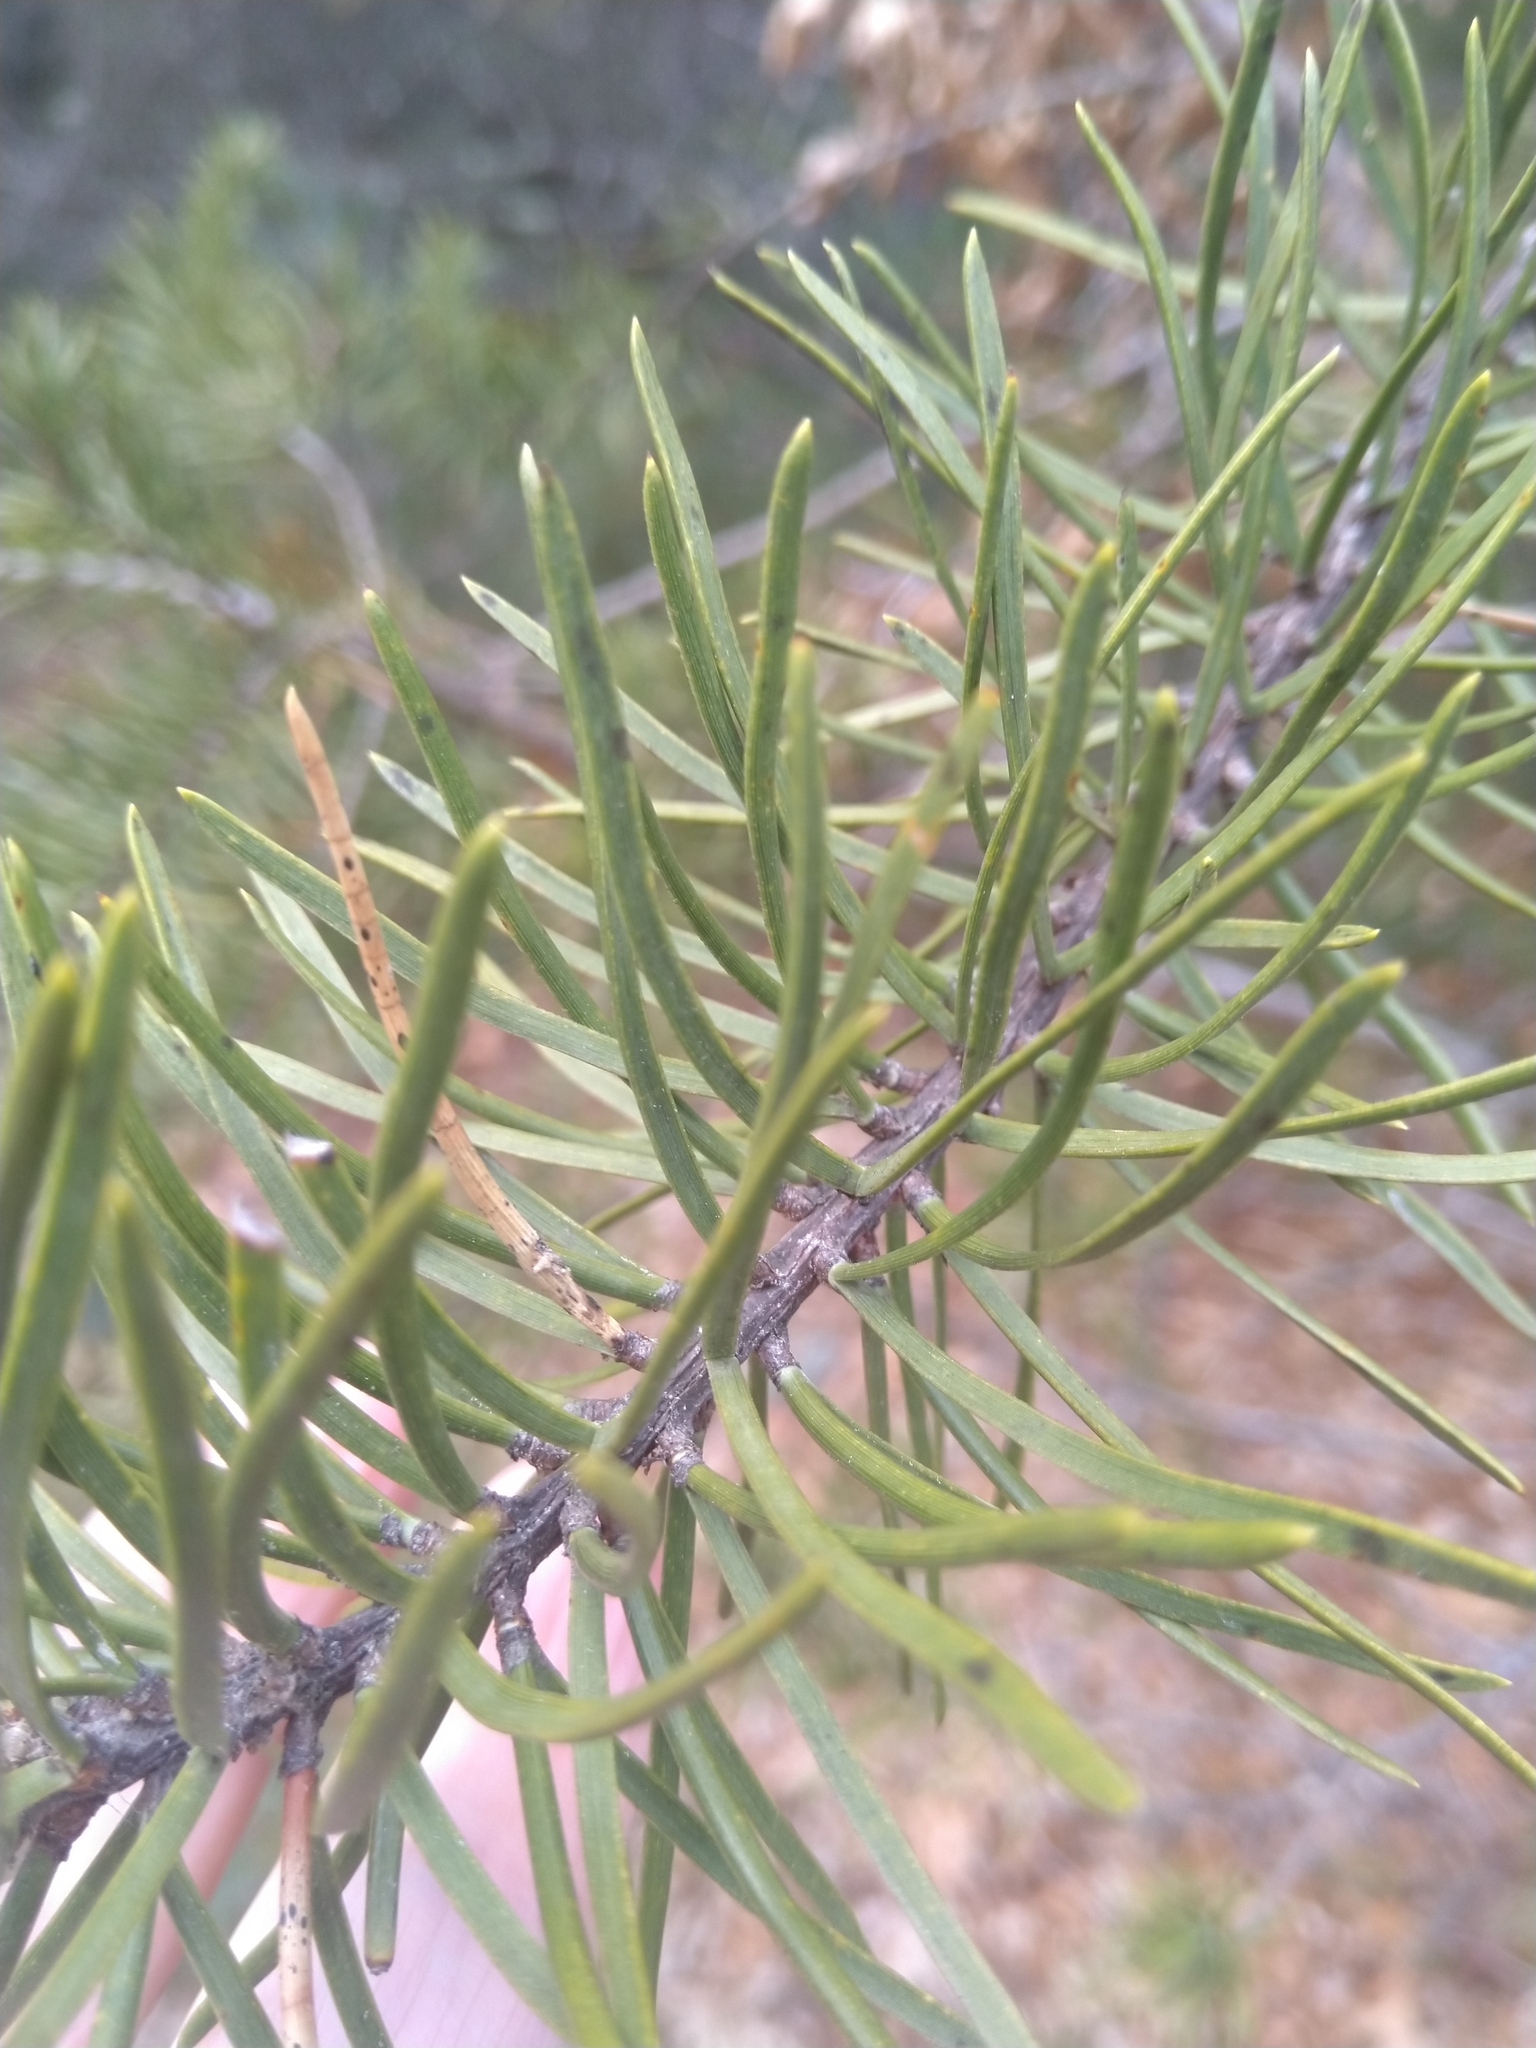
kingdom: Plantae
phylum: Tracheophyta
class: Pinopsida
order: Pinales
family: Pinaceae
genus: Pinus
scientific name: Pinus banksiana
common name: Jack pine
